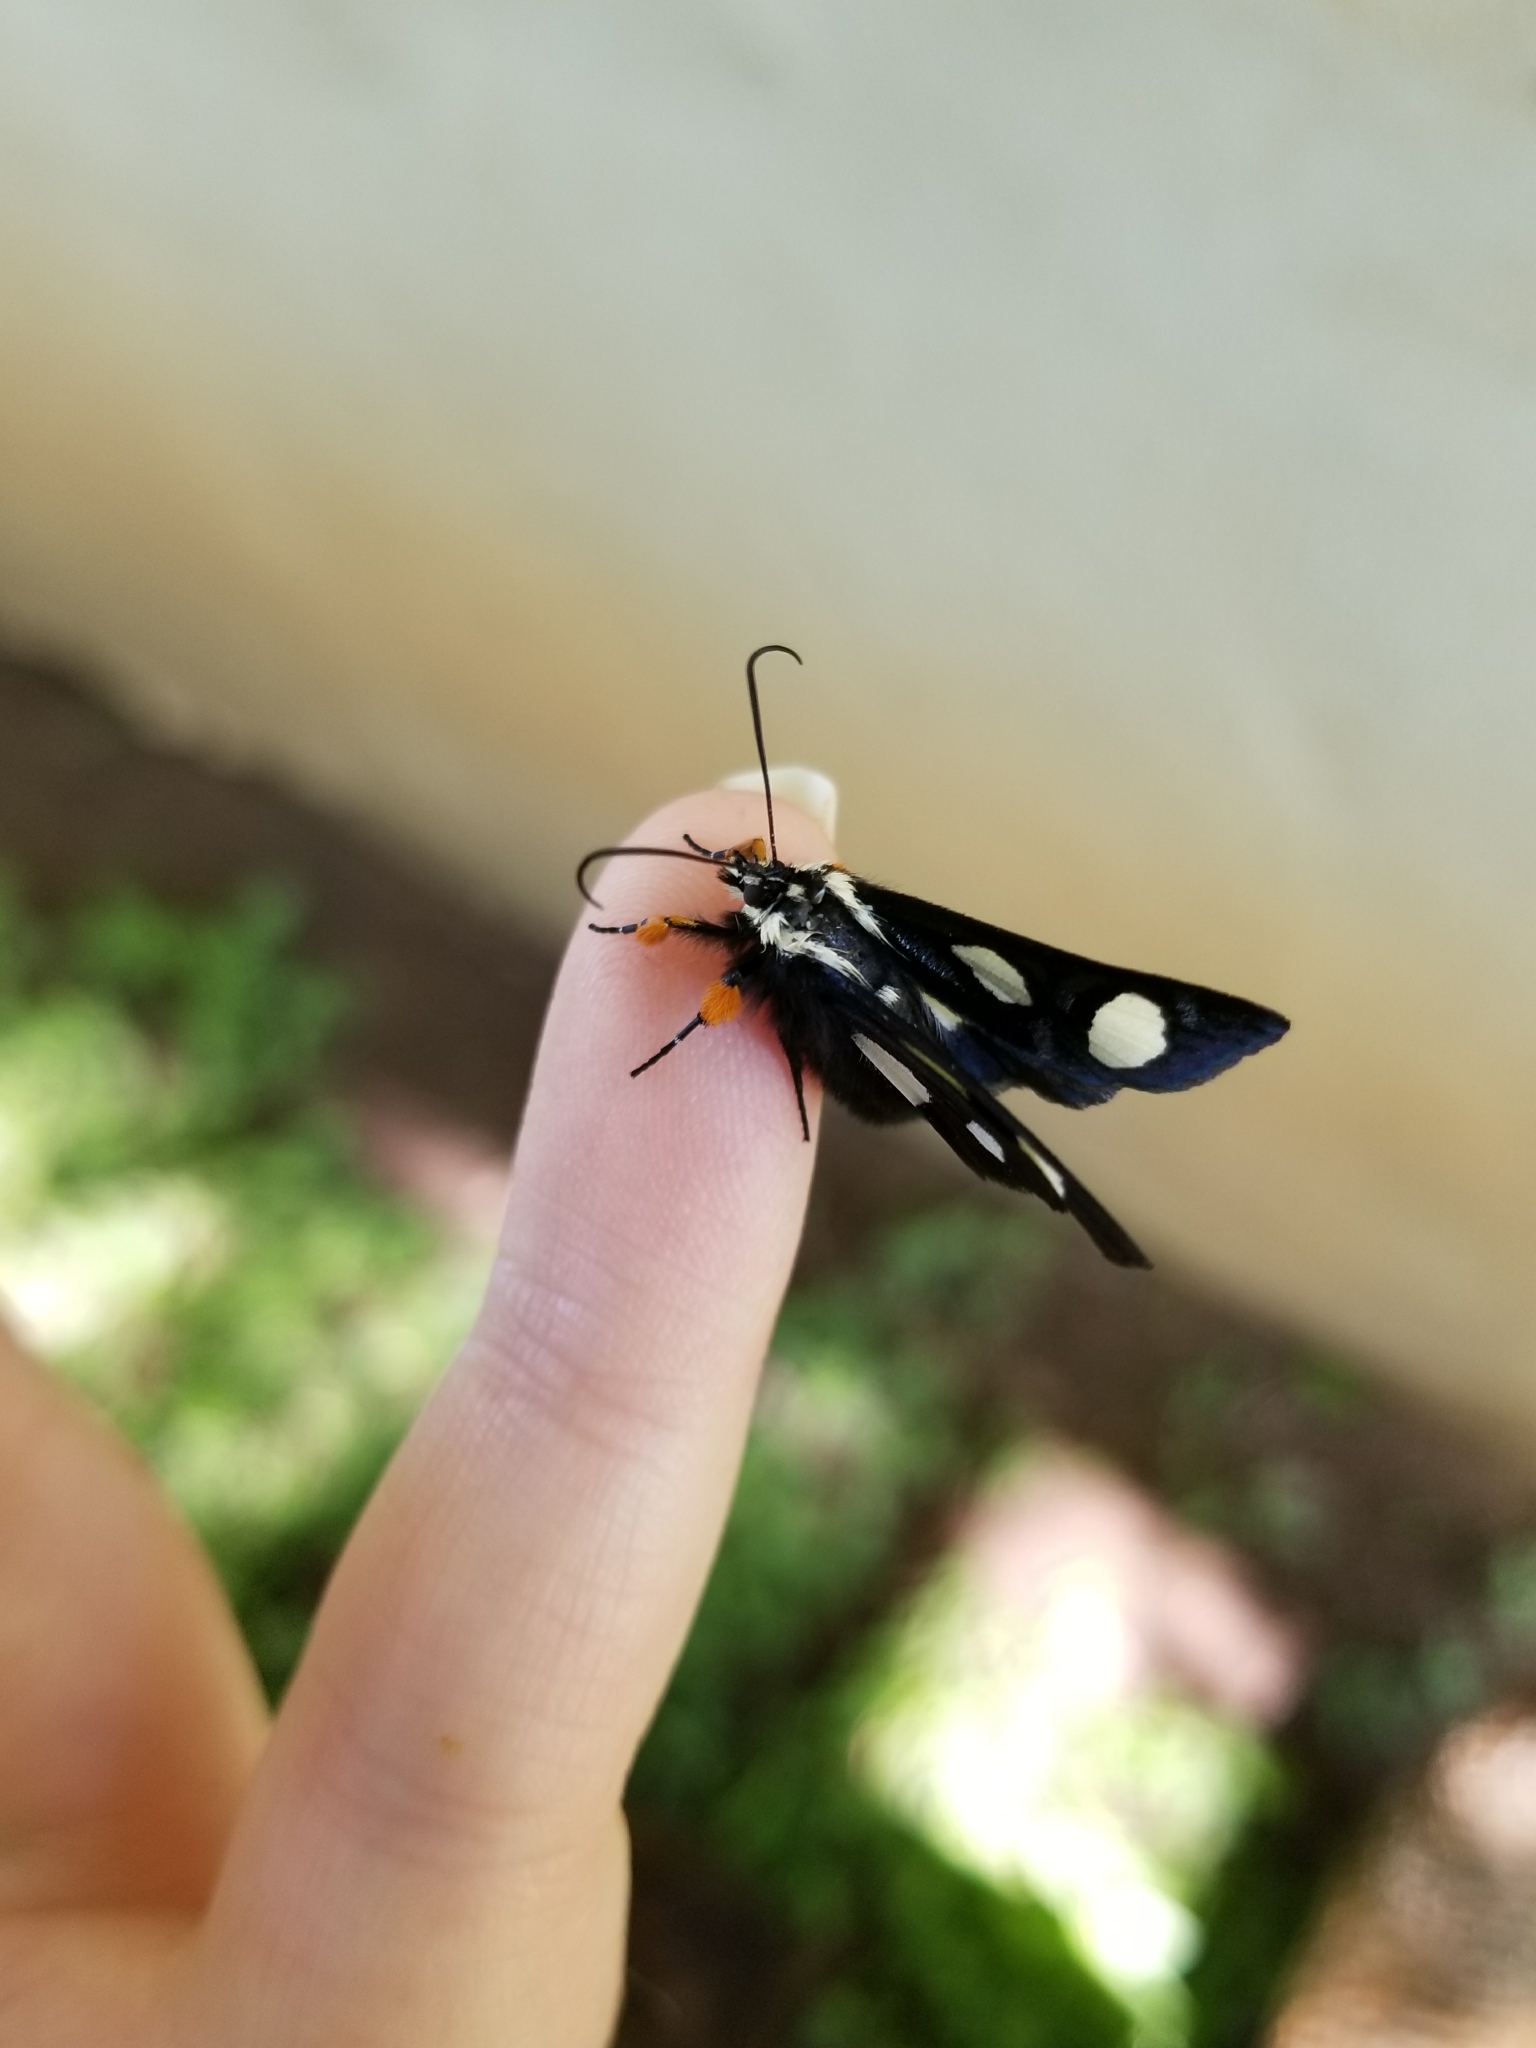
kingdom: Animalia
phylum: Arthropoda
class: Insecta
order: Lepidoptera
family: Noctuidae
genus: Alypia
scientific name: Alypia octomaculata
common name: Eight-spotted forester
